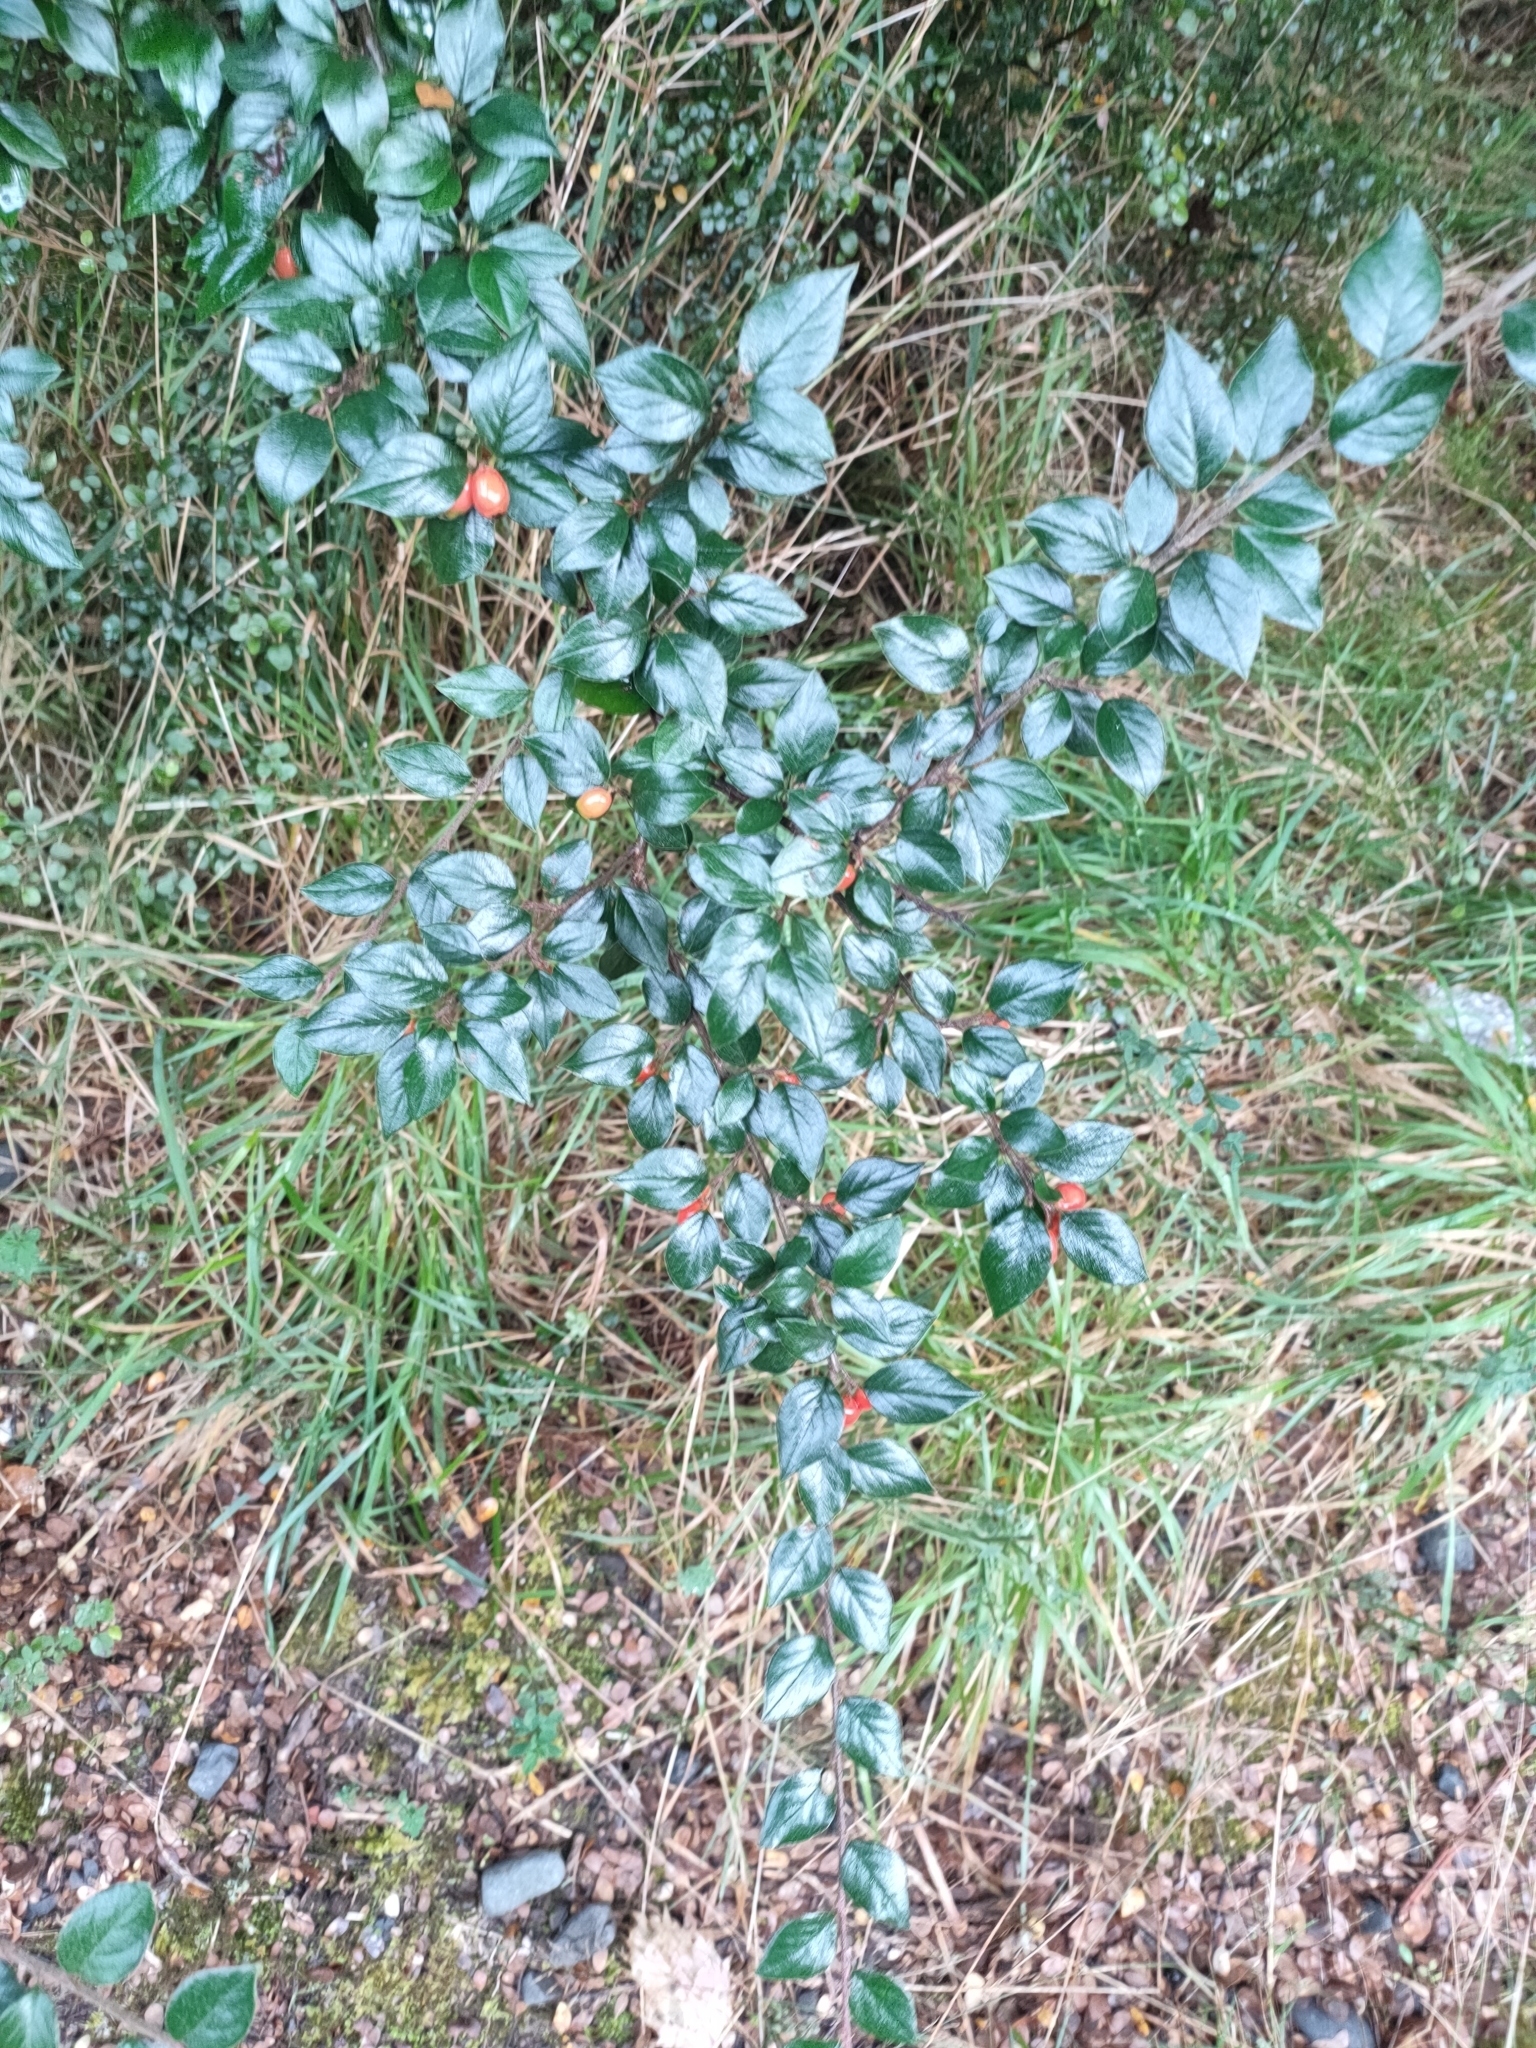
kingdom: Plantae
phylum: Tracheophyta
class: Magnoliopsida
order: Rosales
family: Rosaceae
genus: Cotoneaster
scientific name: Cotoneaster simonsii
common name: Himalayan cotoneaster
